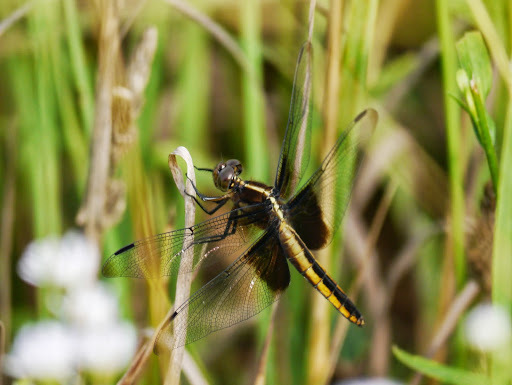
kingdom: Animalia
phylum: Arthropoda
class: Insecta
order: Odonata
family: Libellulidae
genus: Libellula
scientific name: Libellula luctuosa
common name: Widow skimmer
